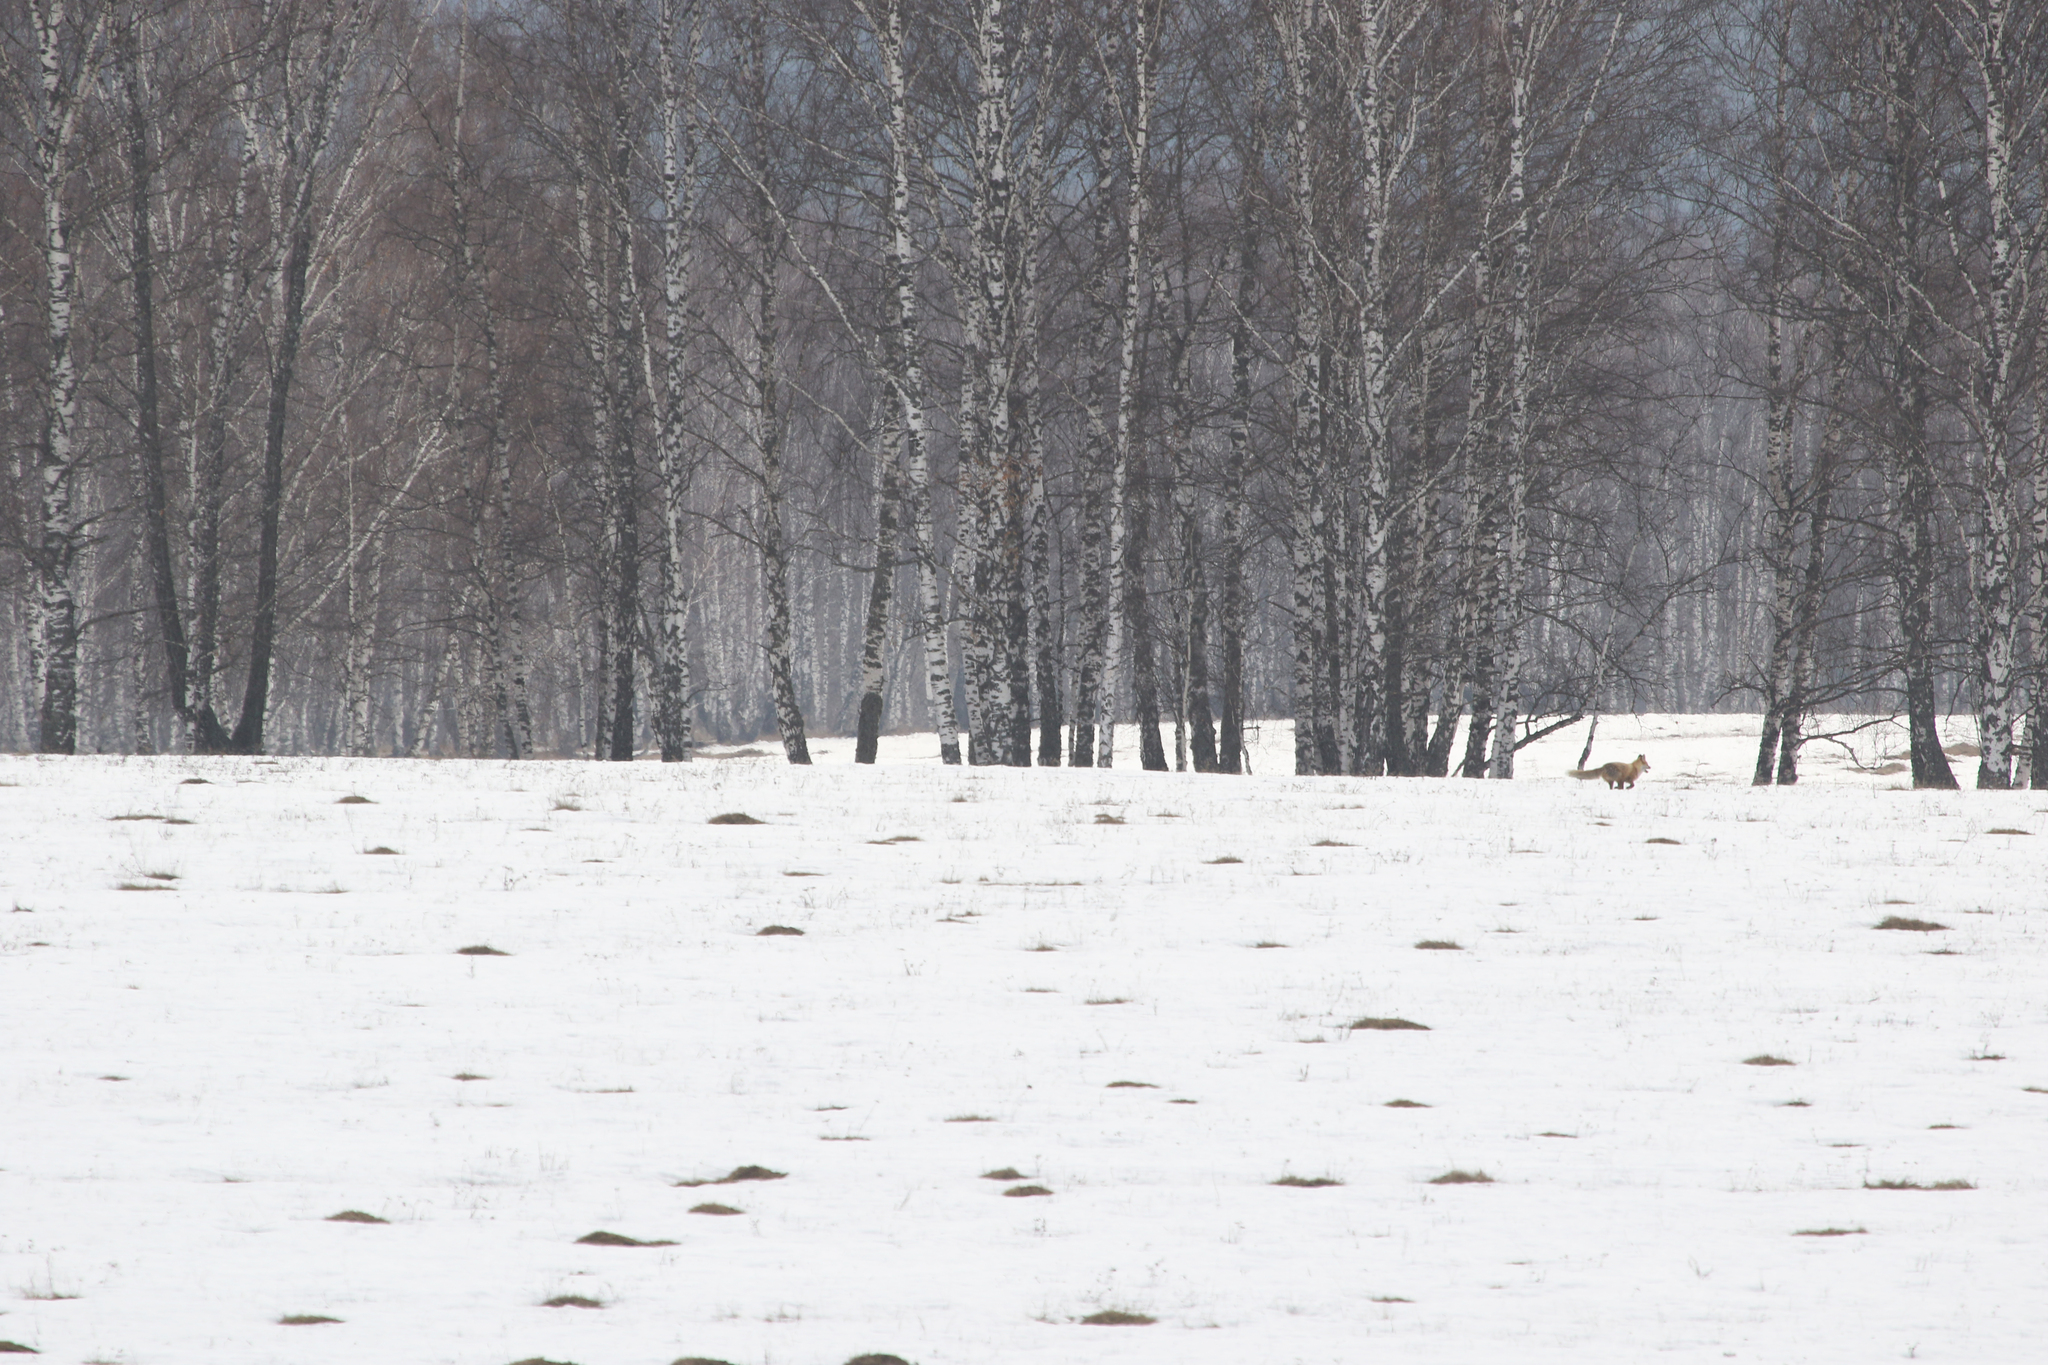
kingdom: Animalia
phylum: Chordata
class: Mammalia
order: Carnivora
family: Canidae
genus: Vulpes
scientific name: Vulpes vulpes
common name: Red fox
